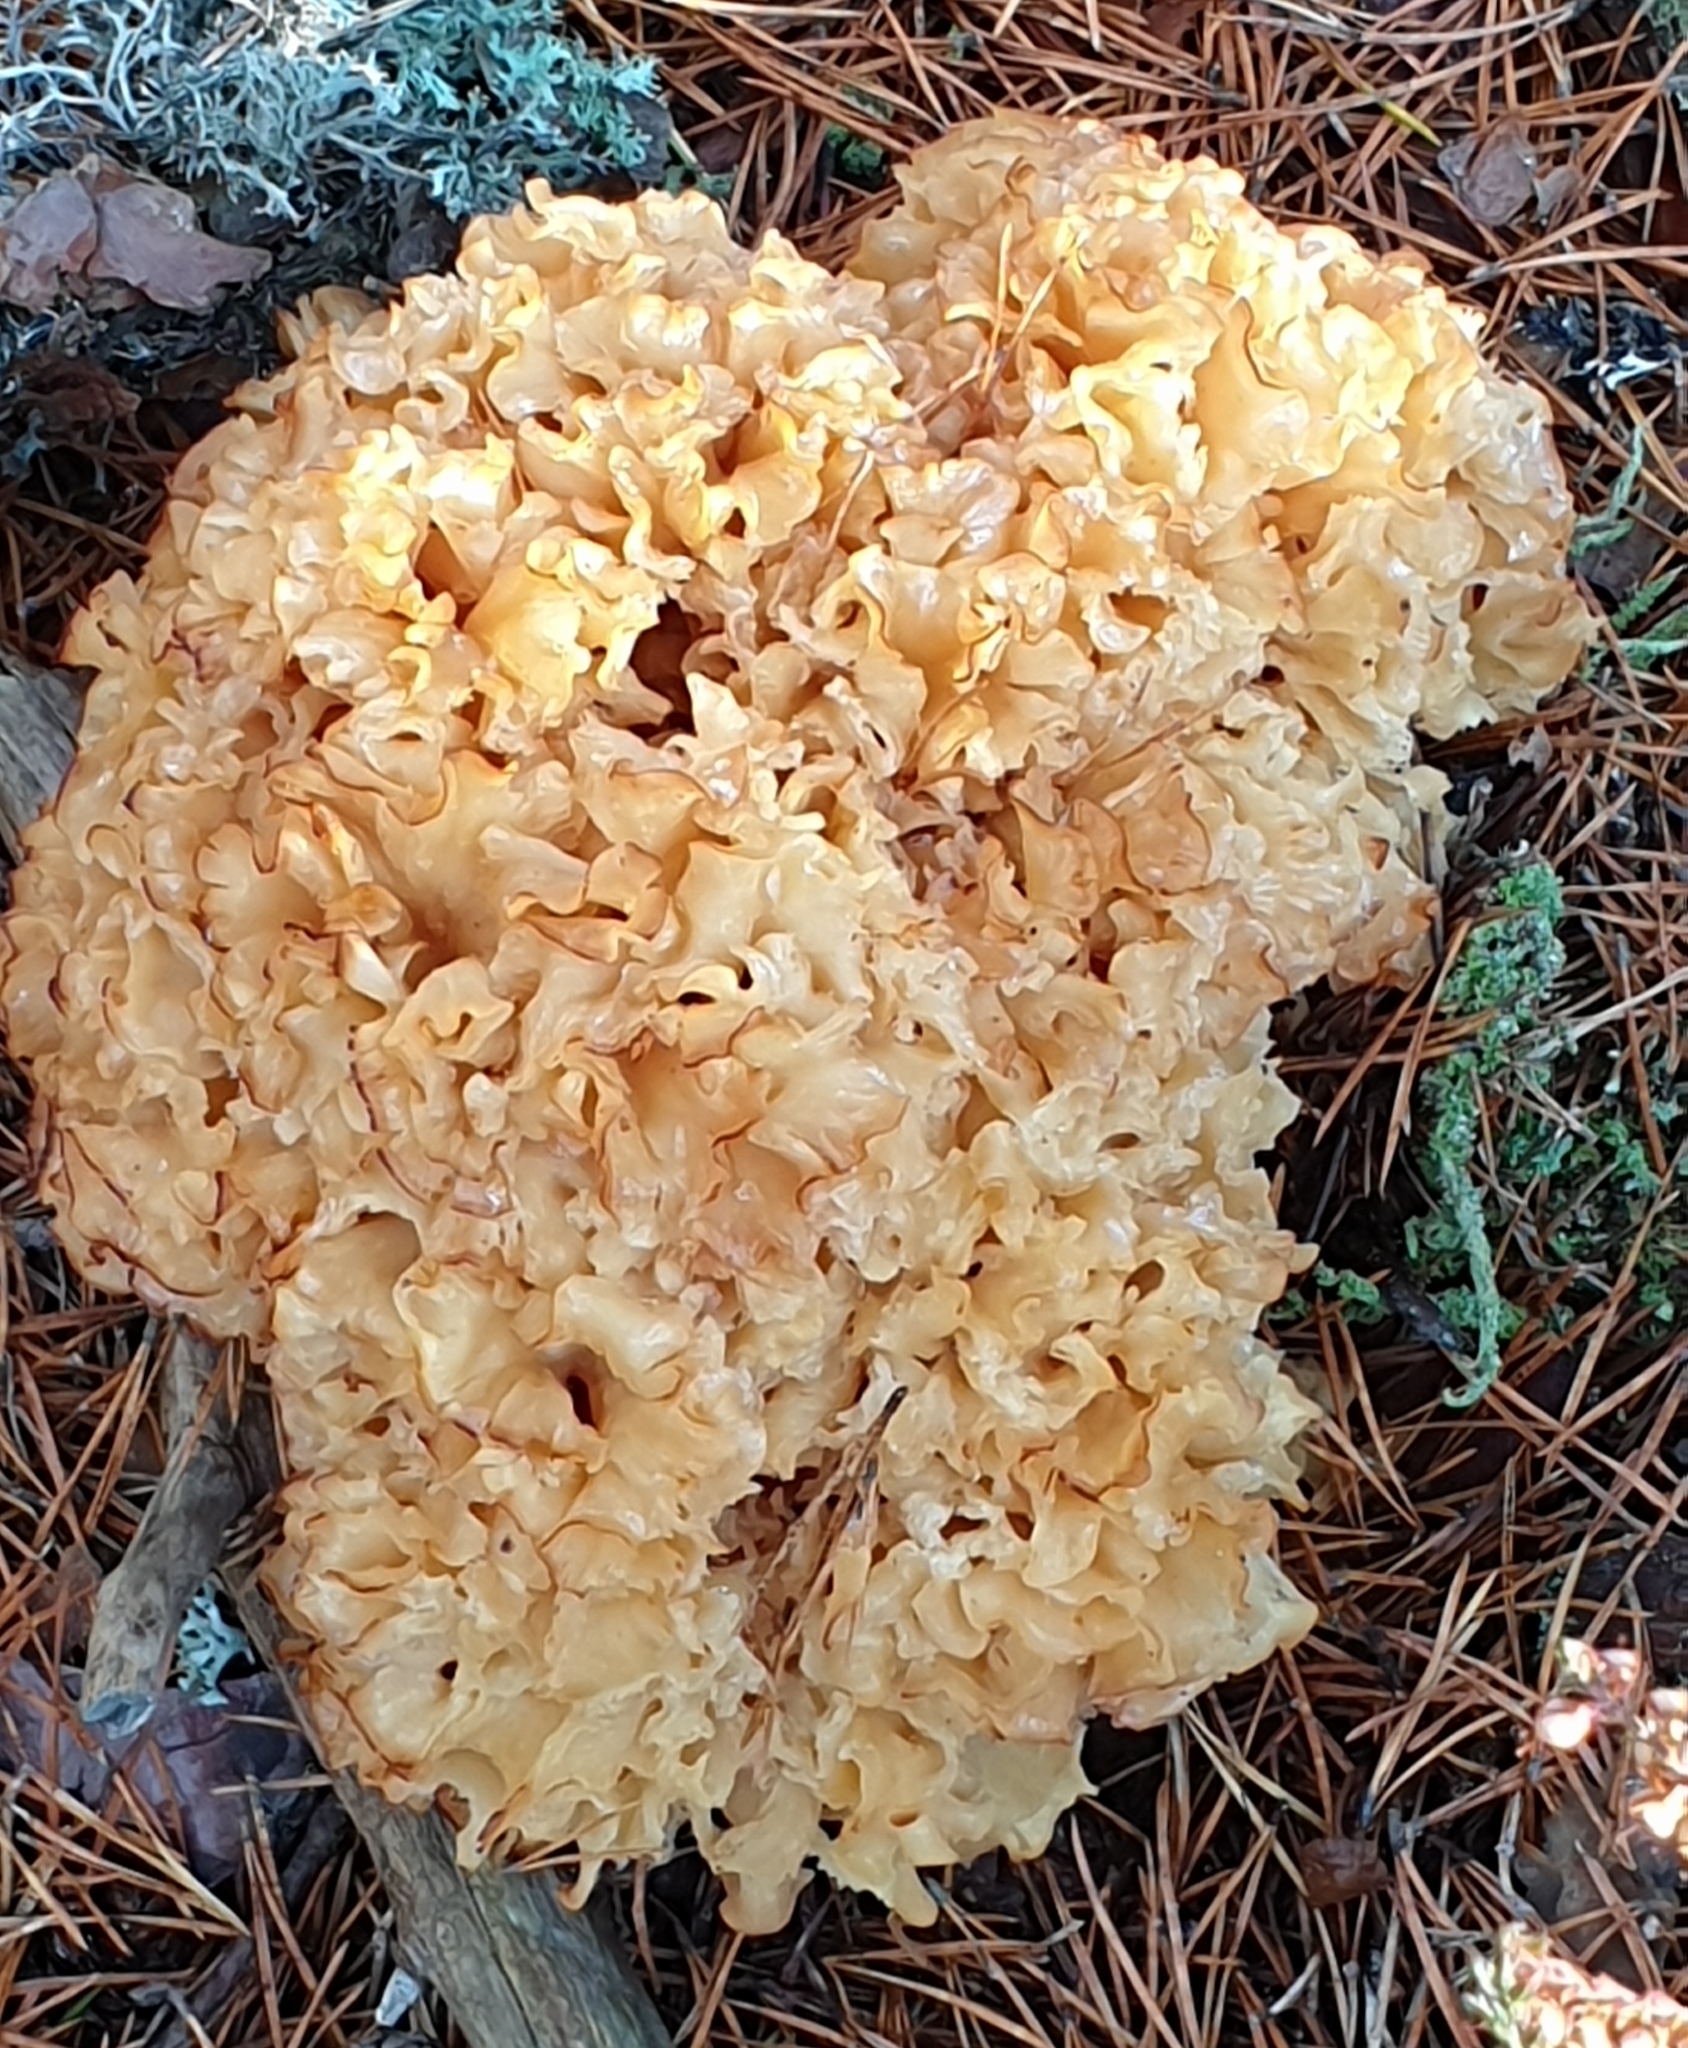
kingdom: Fungi
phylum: Basidiomycota
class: Agaricomycetes
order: Polyporales
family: Sparassidaceae
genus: Sparassis
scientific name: Sparassis crispa
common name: Brain fungus
